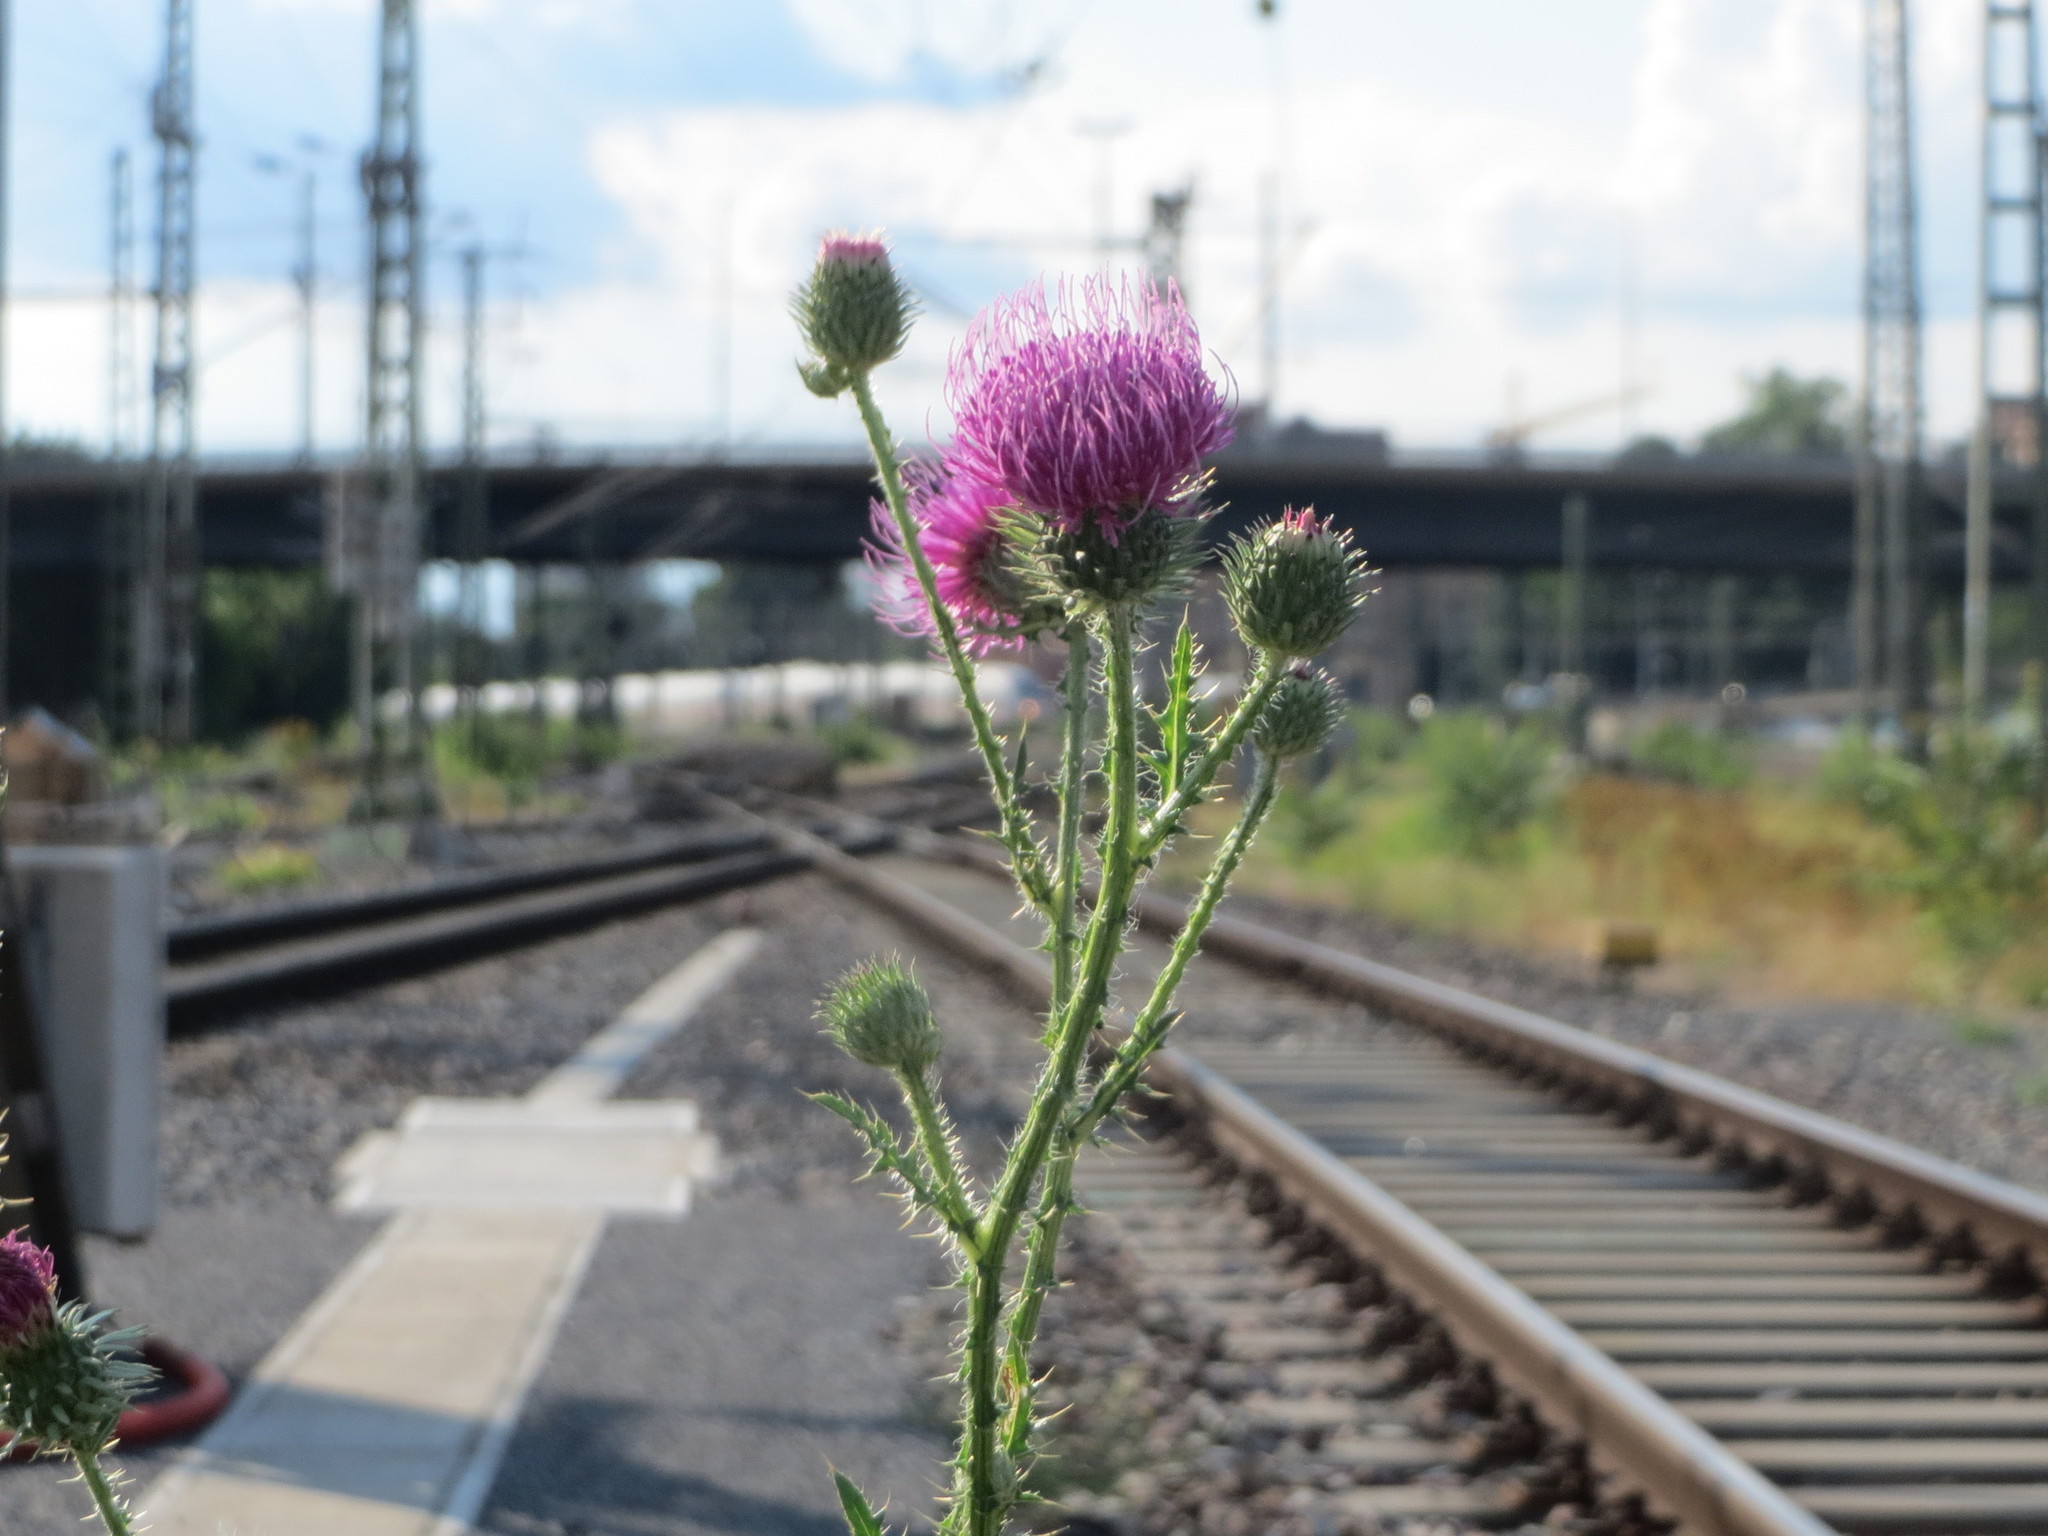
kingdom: Plantae
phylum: Tracheophyta
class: Magnoliopsida
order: Asterales
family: Asteraceae
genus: Carduus
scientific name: Carduus acanthoides
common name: Plumeless thistle
